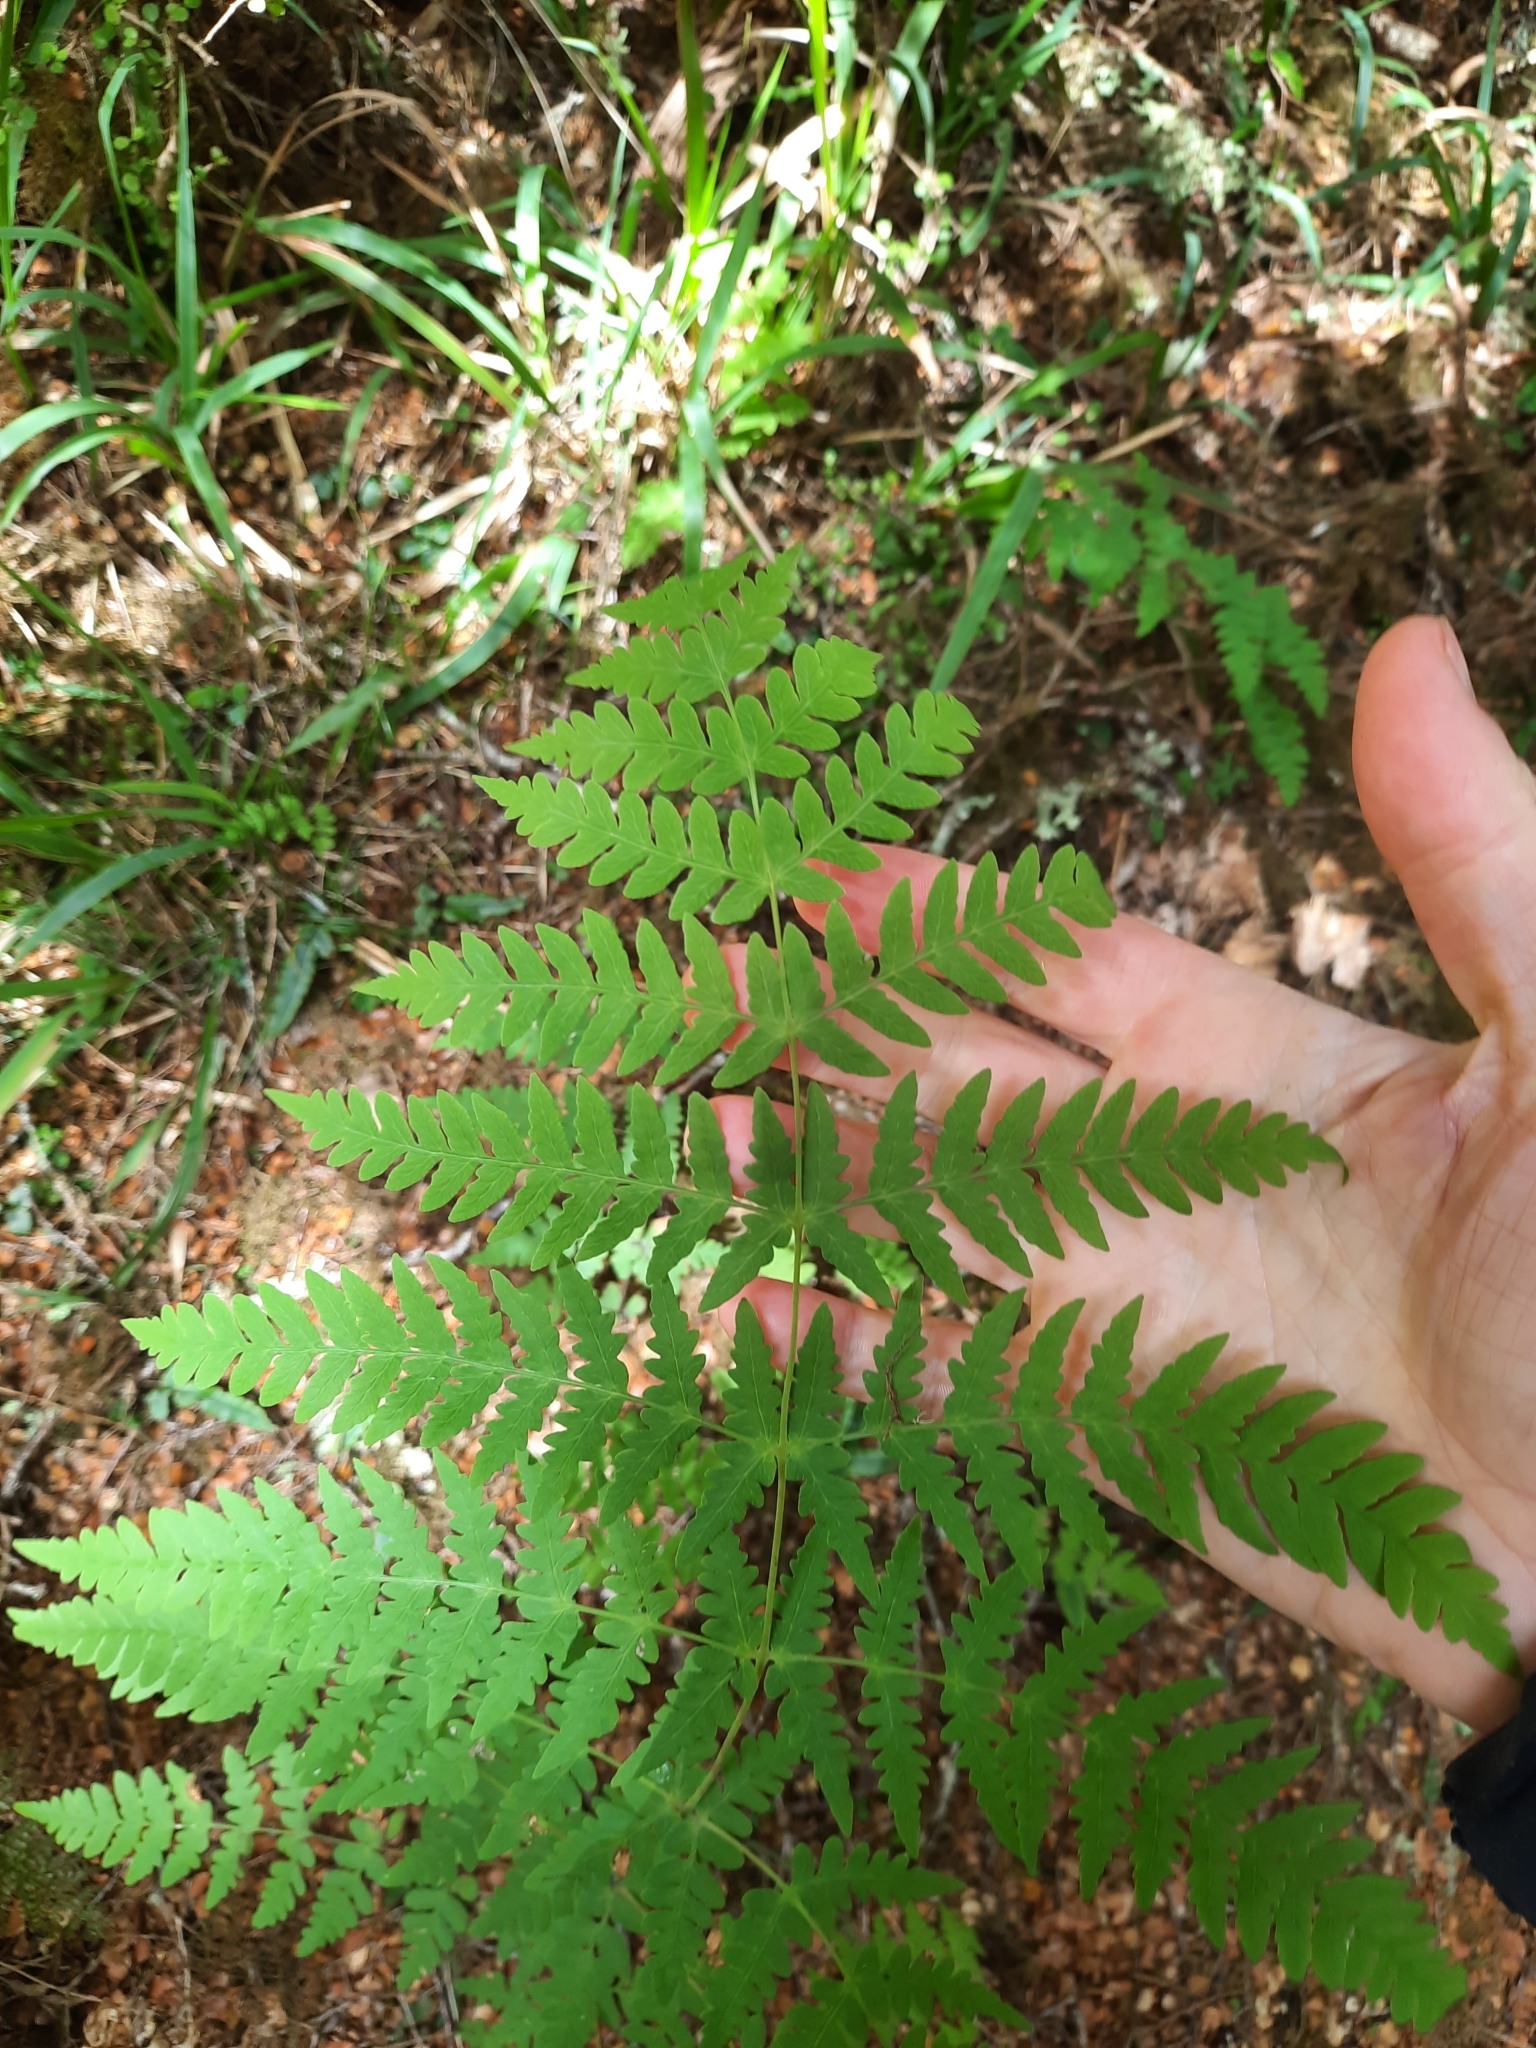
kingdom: Plantae
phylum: Tracheophyta
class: Polypodiopsida
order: Polypodiales
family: Dennstaedtiaceae
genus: Histiopteris
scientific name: Histiopteris incisa
